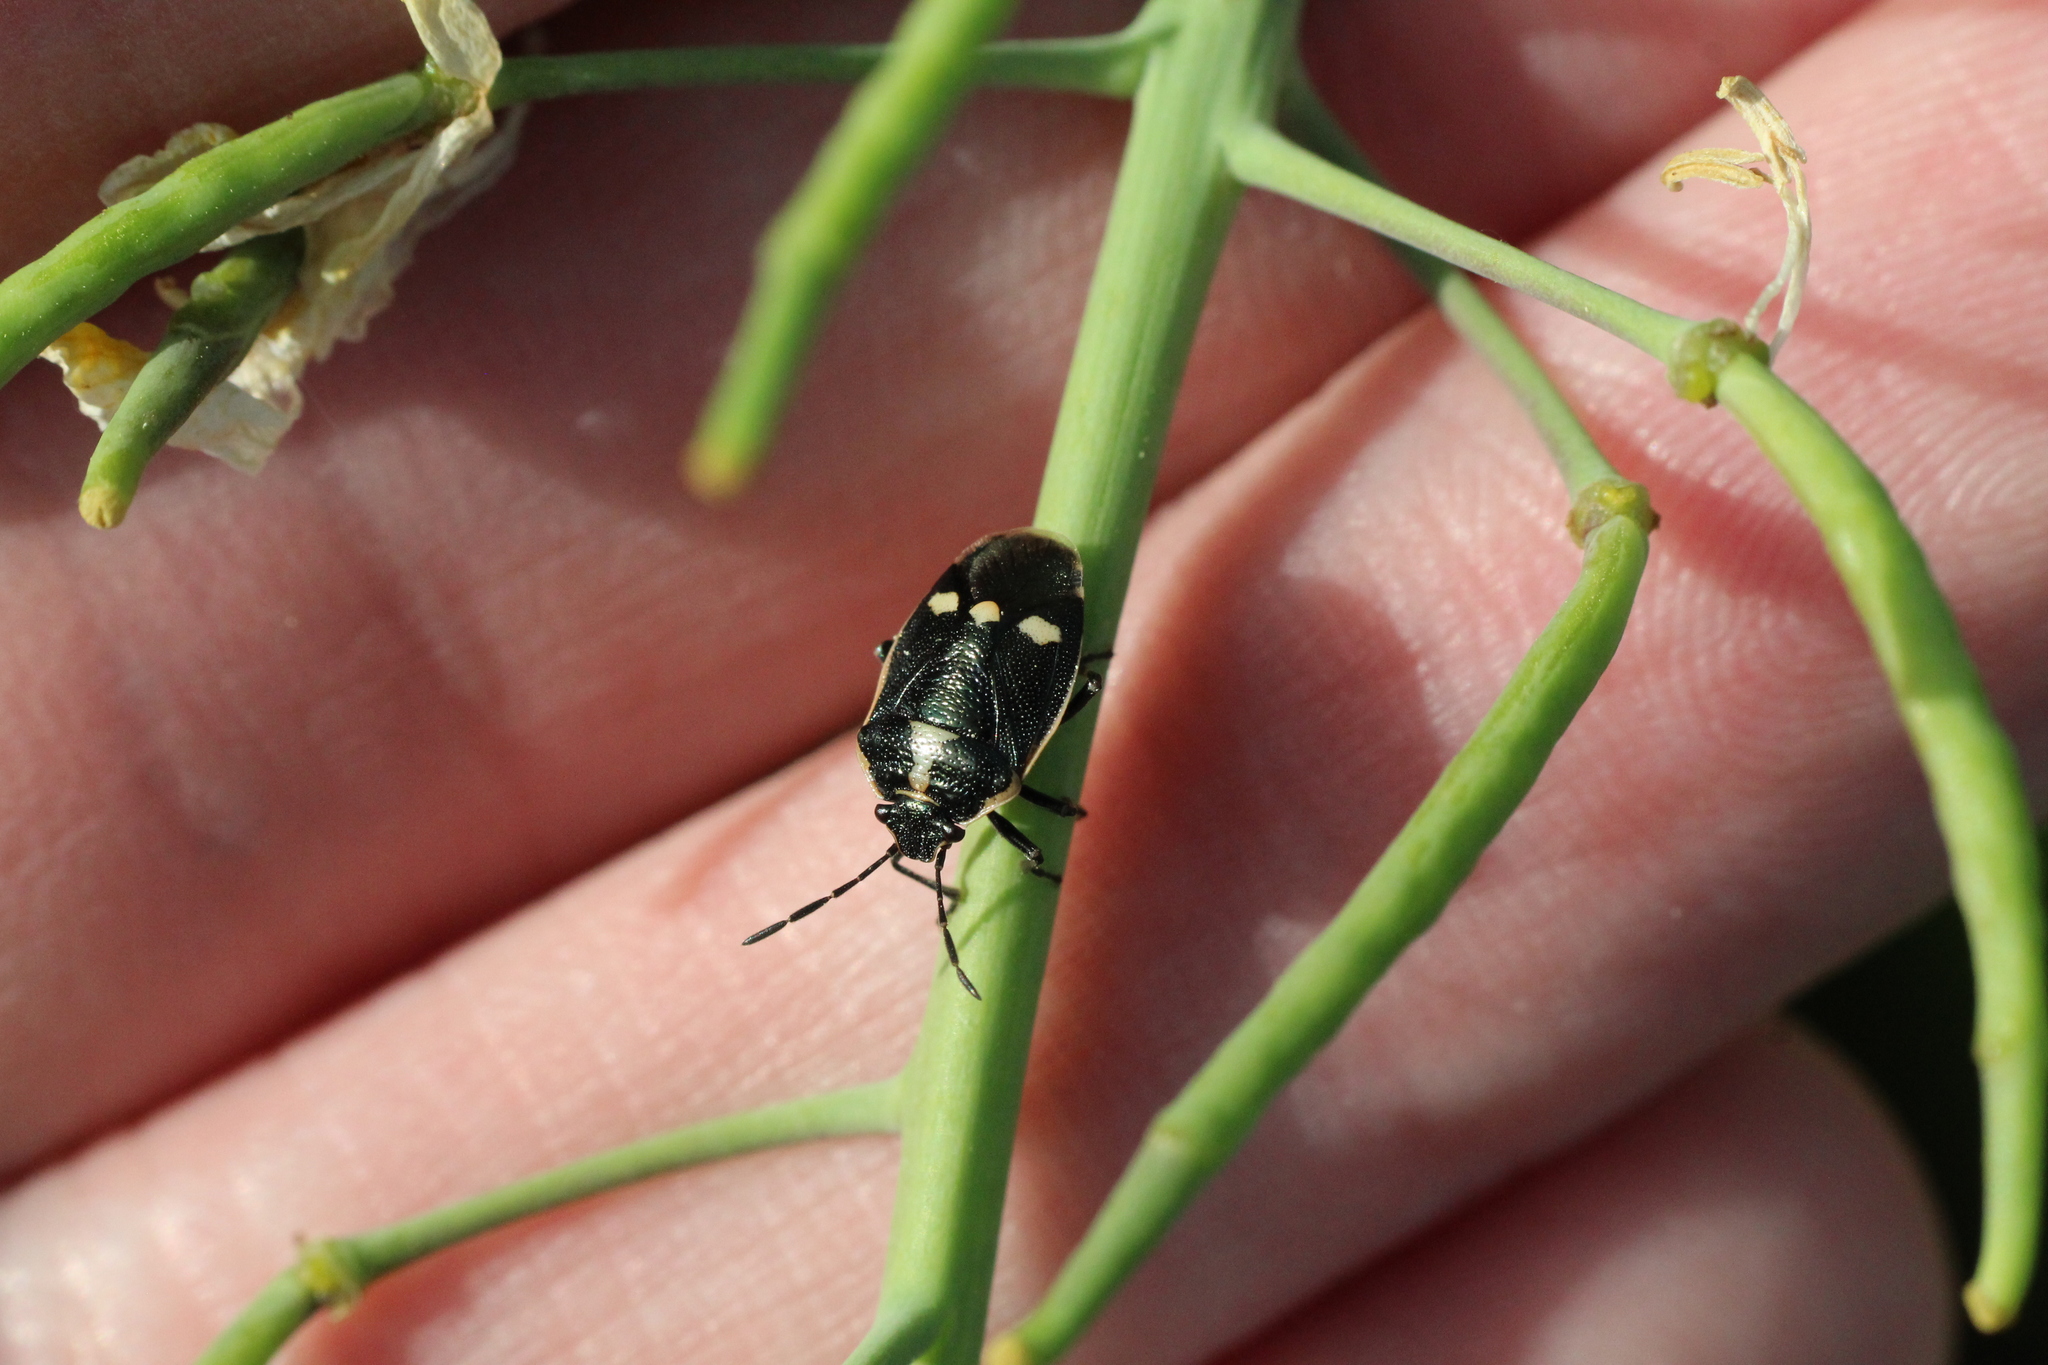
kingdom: Animalia
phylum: Arthropoda
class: Insecta
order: Hemiptera
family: Pentatomidae
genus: Eurydema
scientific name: Eurydema oleracea
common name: Cabbage bug
